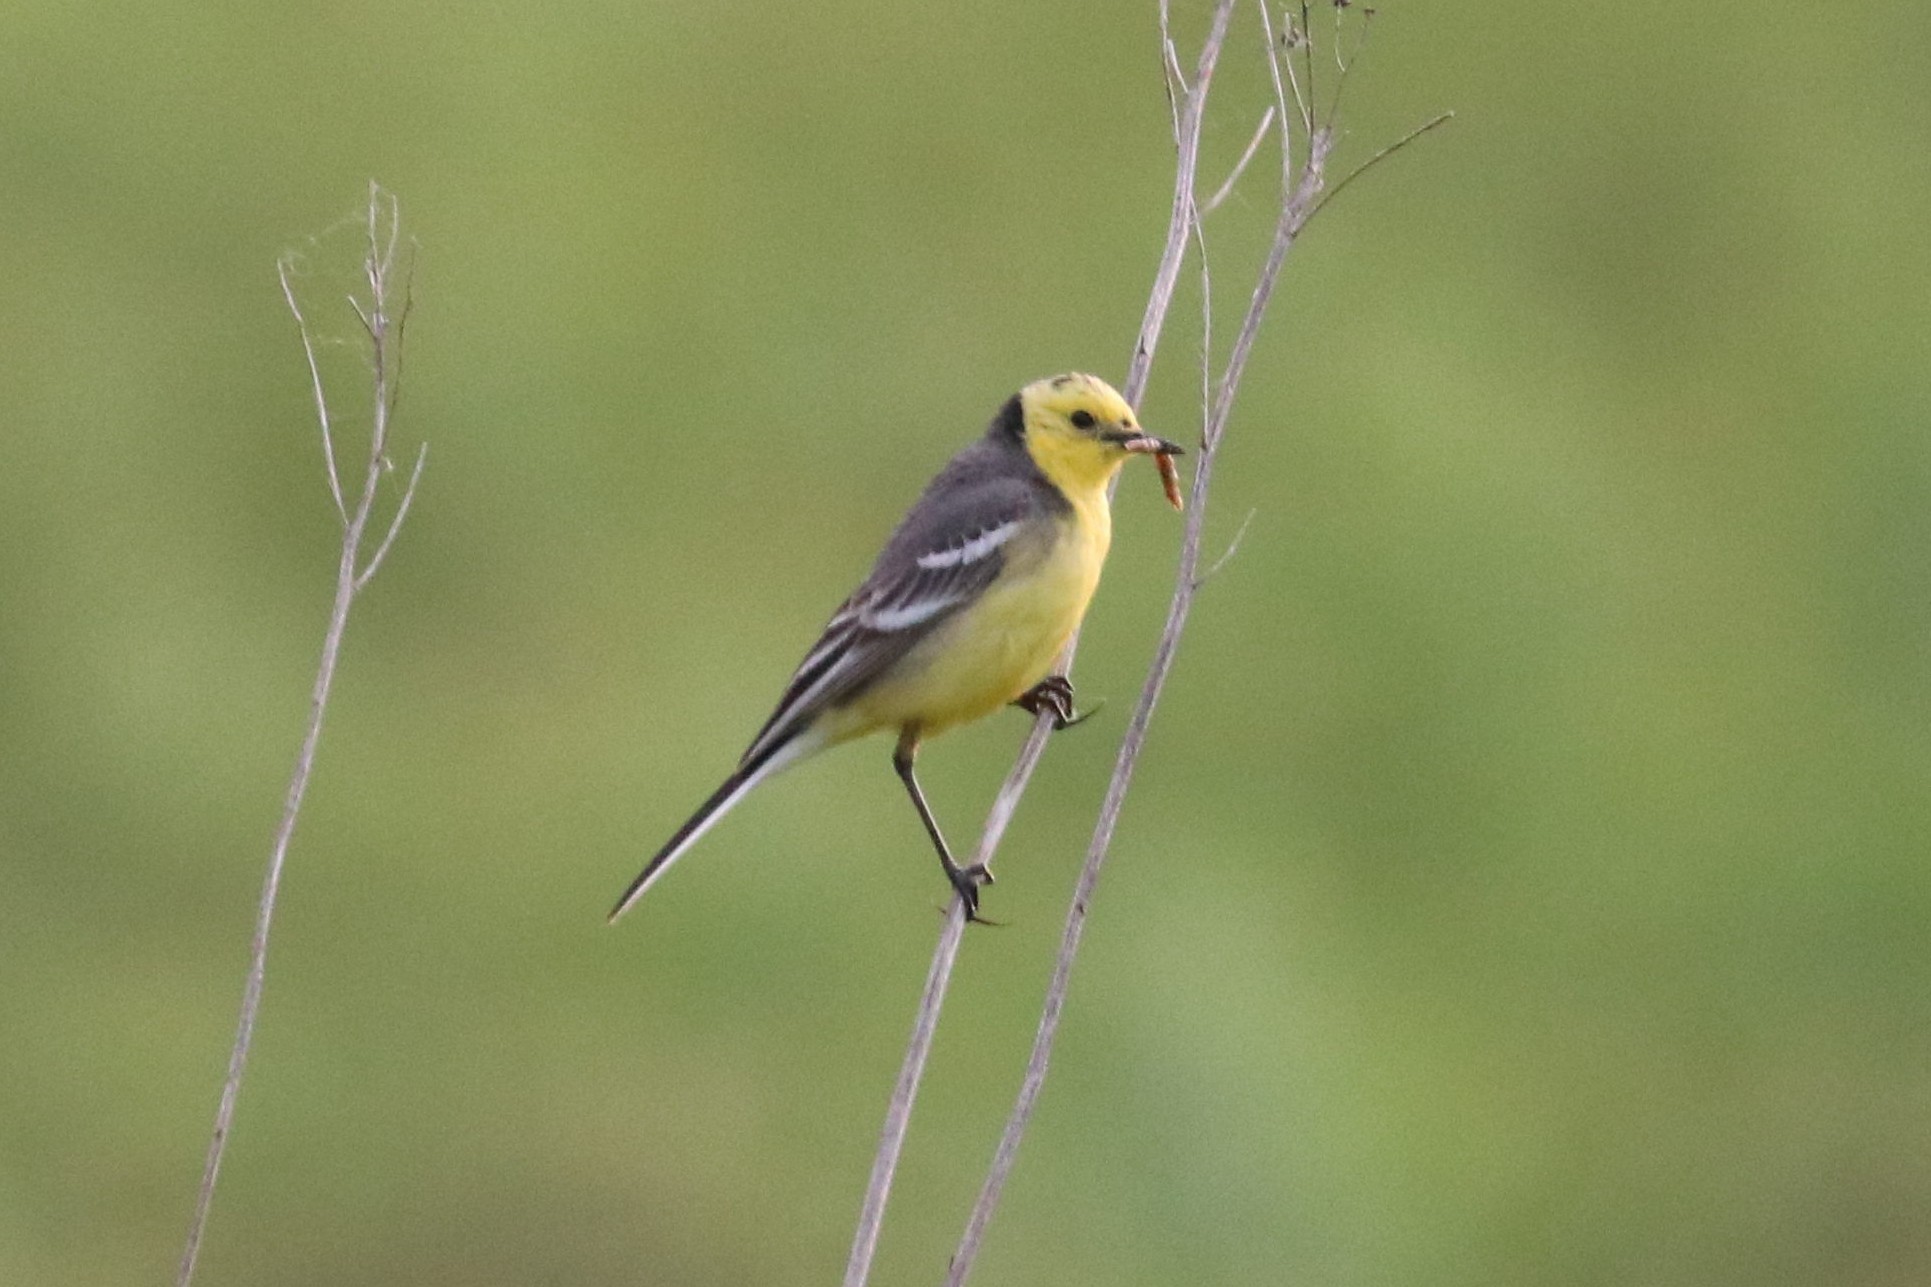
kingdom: Animalia
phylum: Chordata
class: Aves
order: Passeriformes
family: Motacillidae
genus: Motacilla
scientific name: Motacilla citreola
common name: Citrine wagtail
